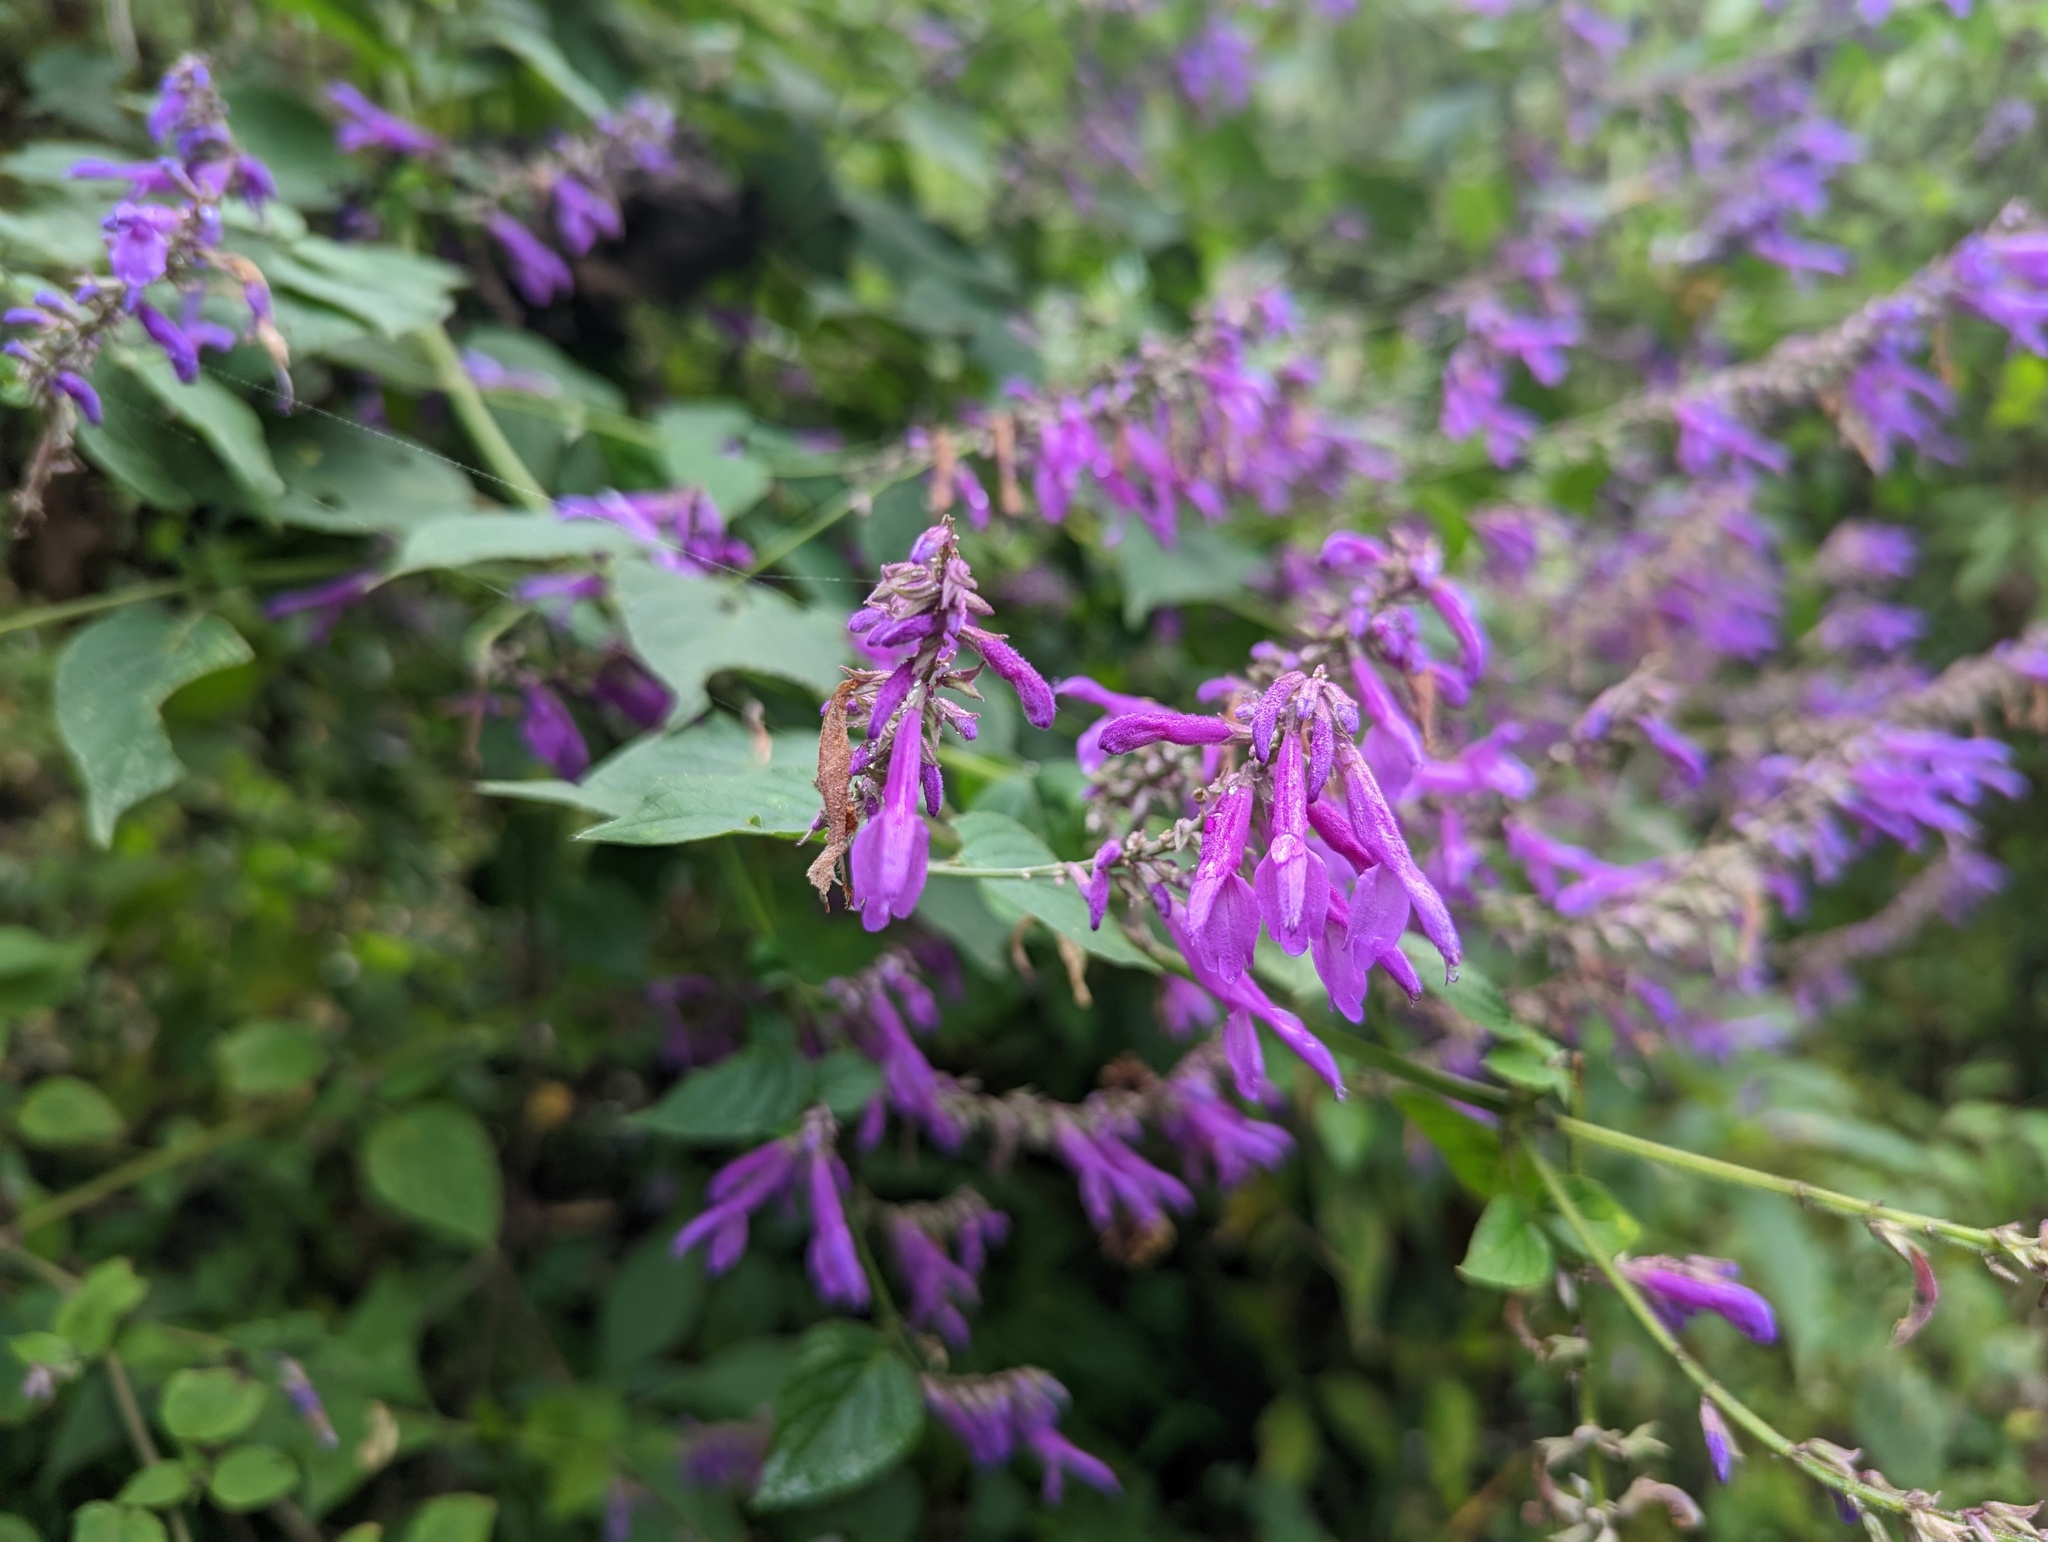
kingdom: Plantae
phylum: Tracheophyta
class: Magnoliopsida
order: Lamiales
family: Lamiaceae
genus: Salvia
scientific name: Salvia purpurea
